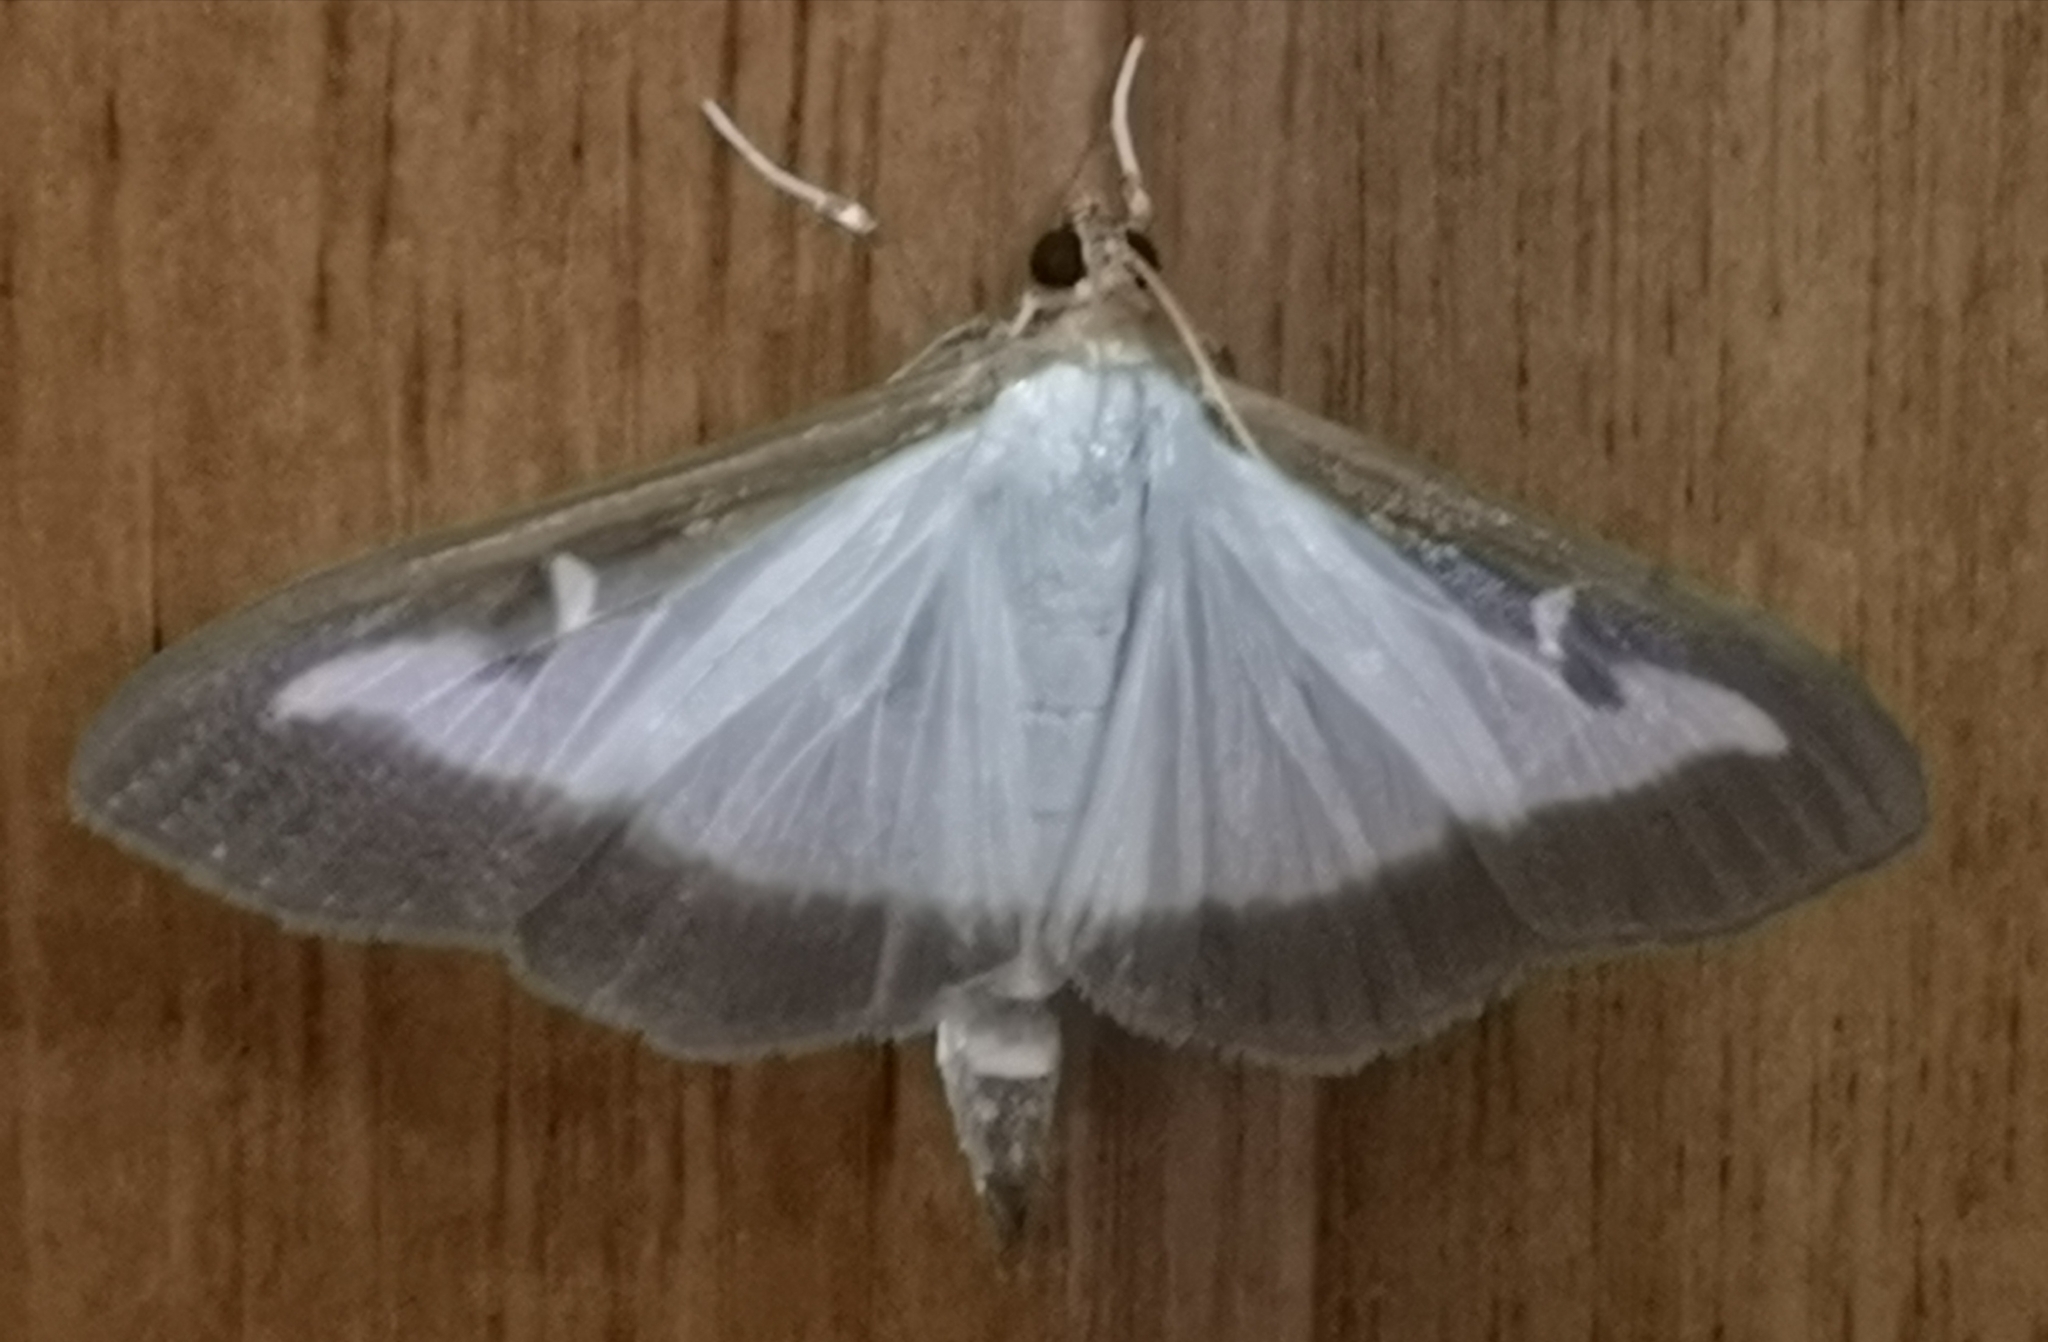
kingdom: Animalia
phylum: Arthropoda
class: Insecta
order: Lepidoptera
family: Crambidae
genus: Cydalima
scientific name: Cydalima perspectalis
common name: Box tree moth
